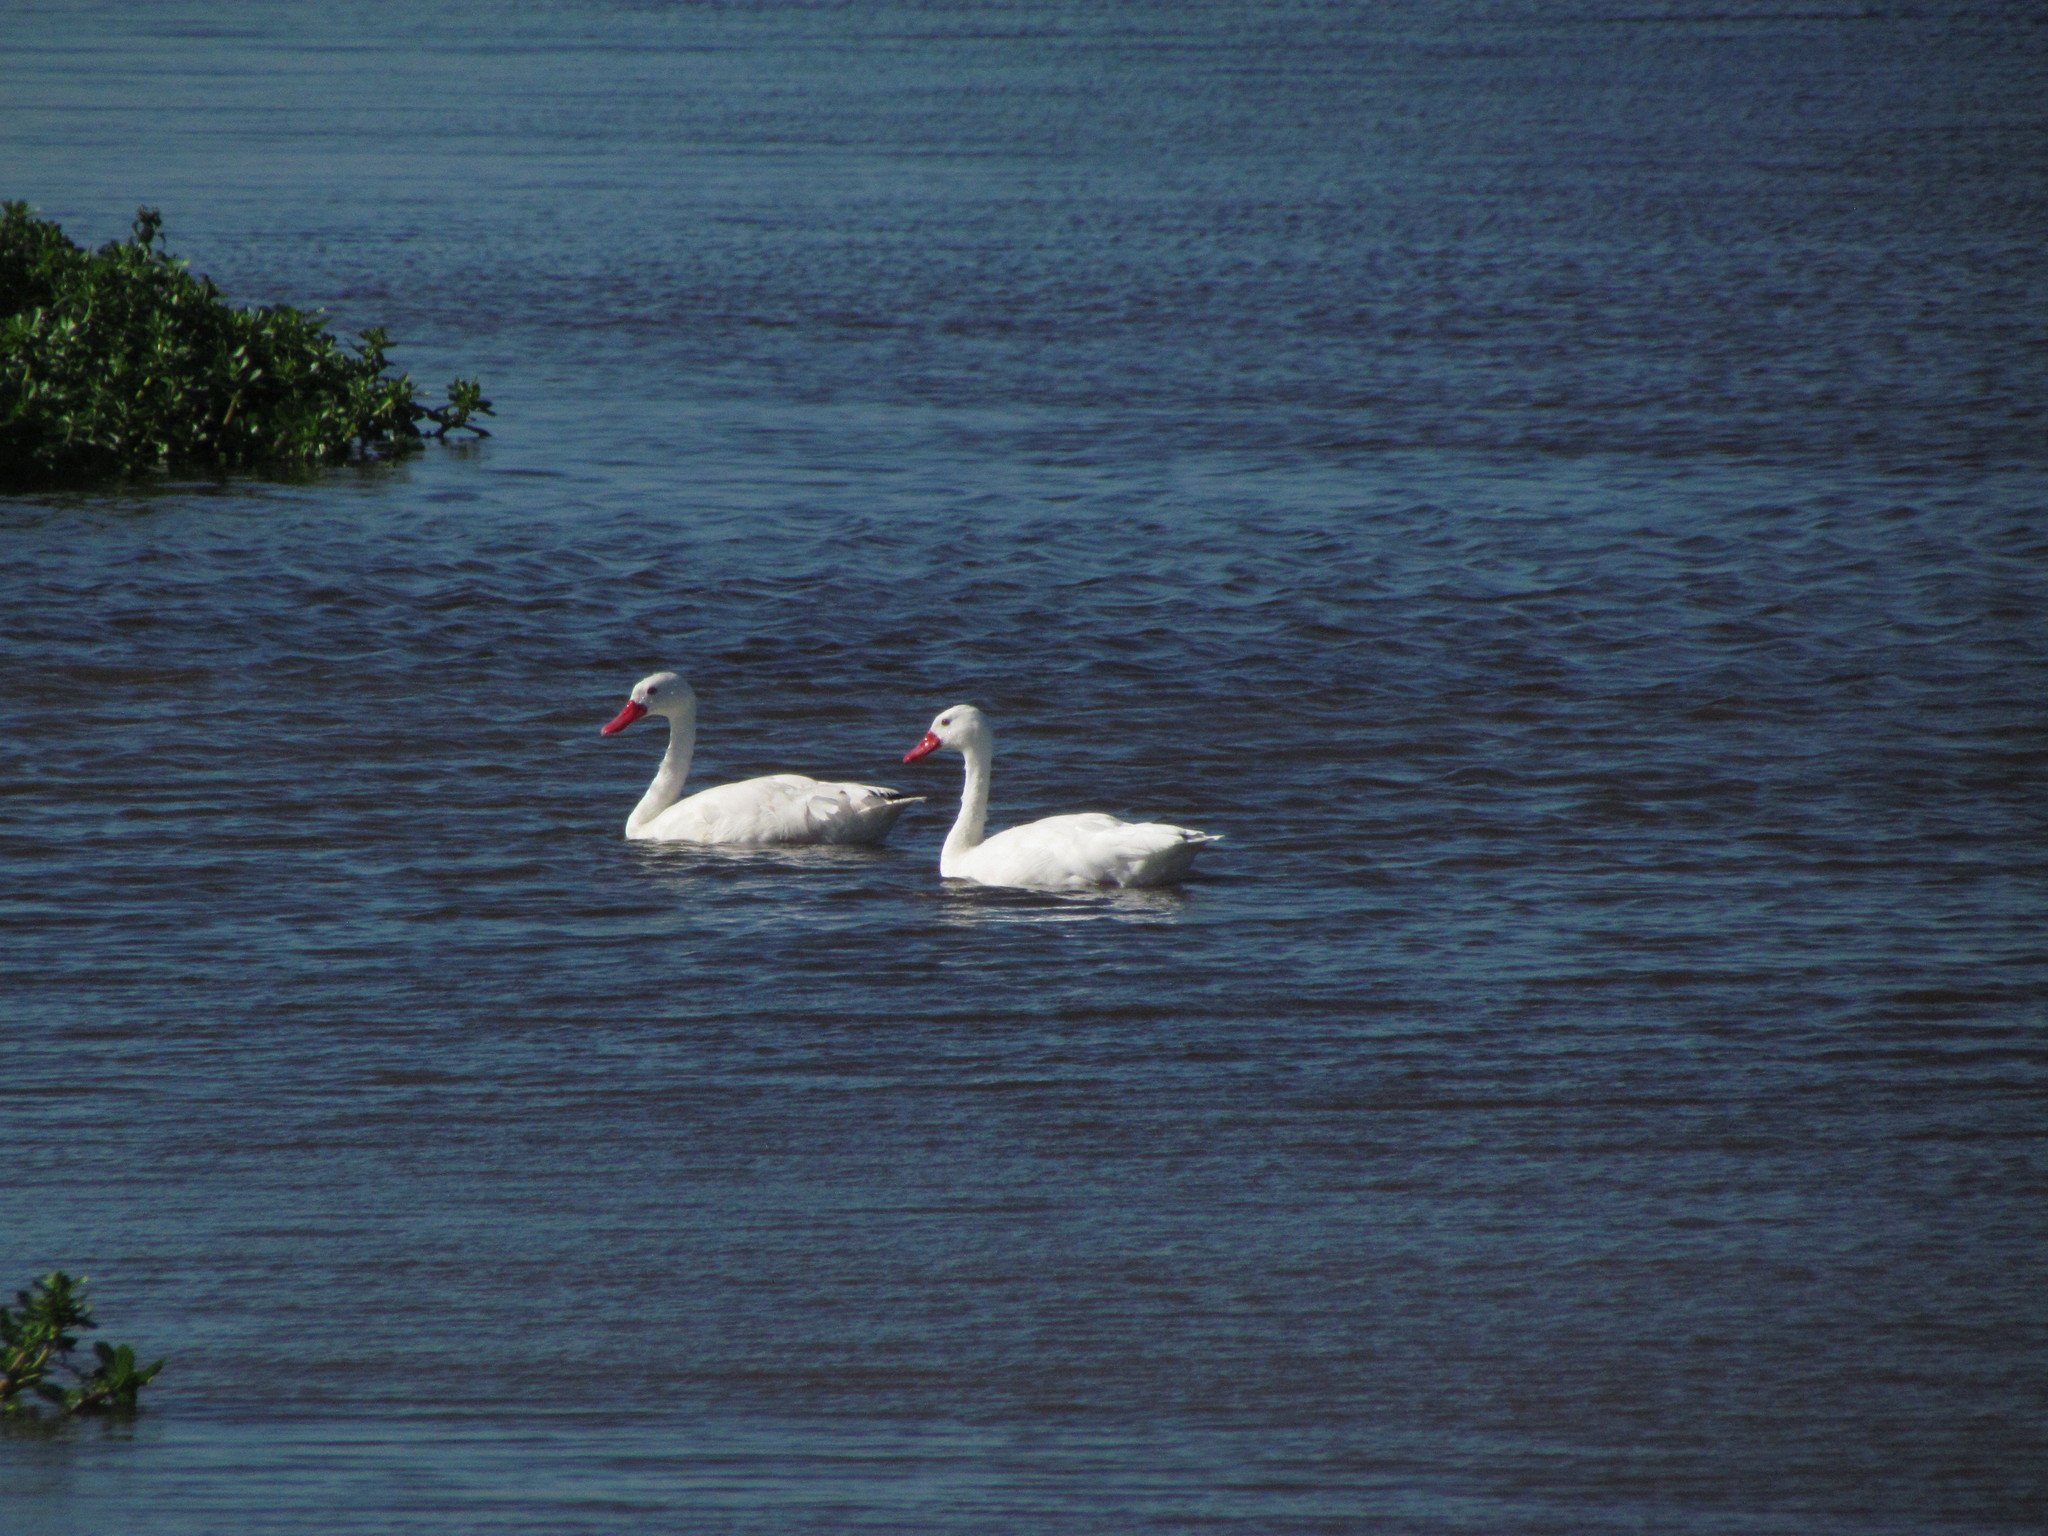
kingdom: Animalia
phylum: Chordata
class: Aves
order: Anseriformes
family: Anatidae
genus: Coscoroba
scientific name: Coscoroba coscoroba
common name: Coscoroba swan
